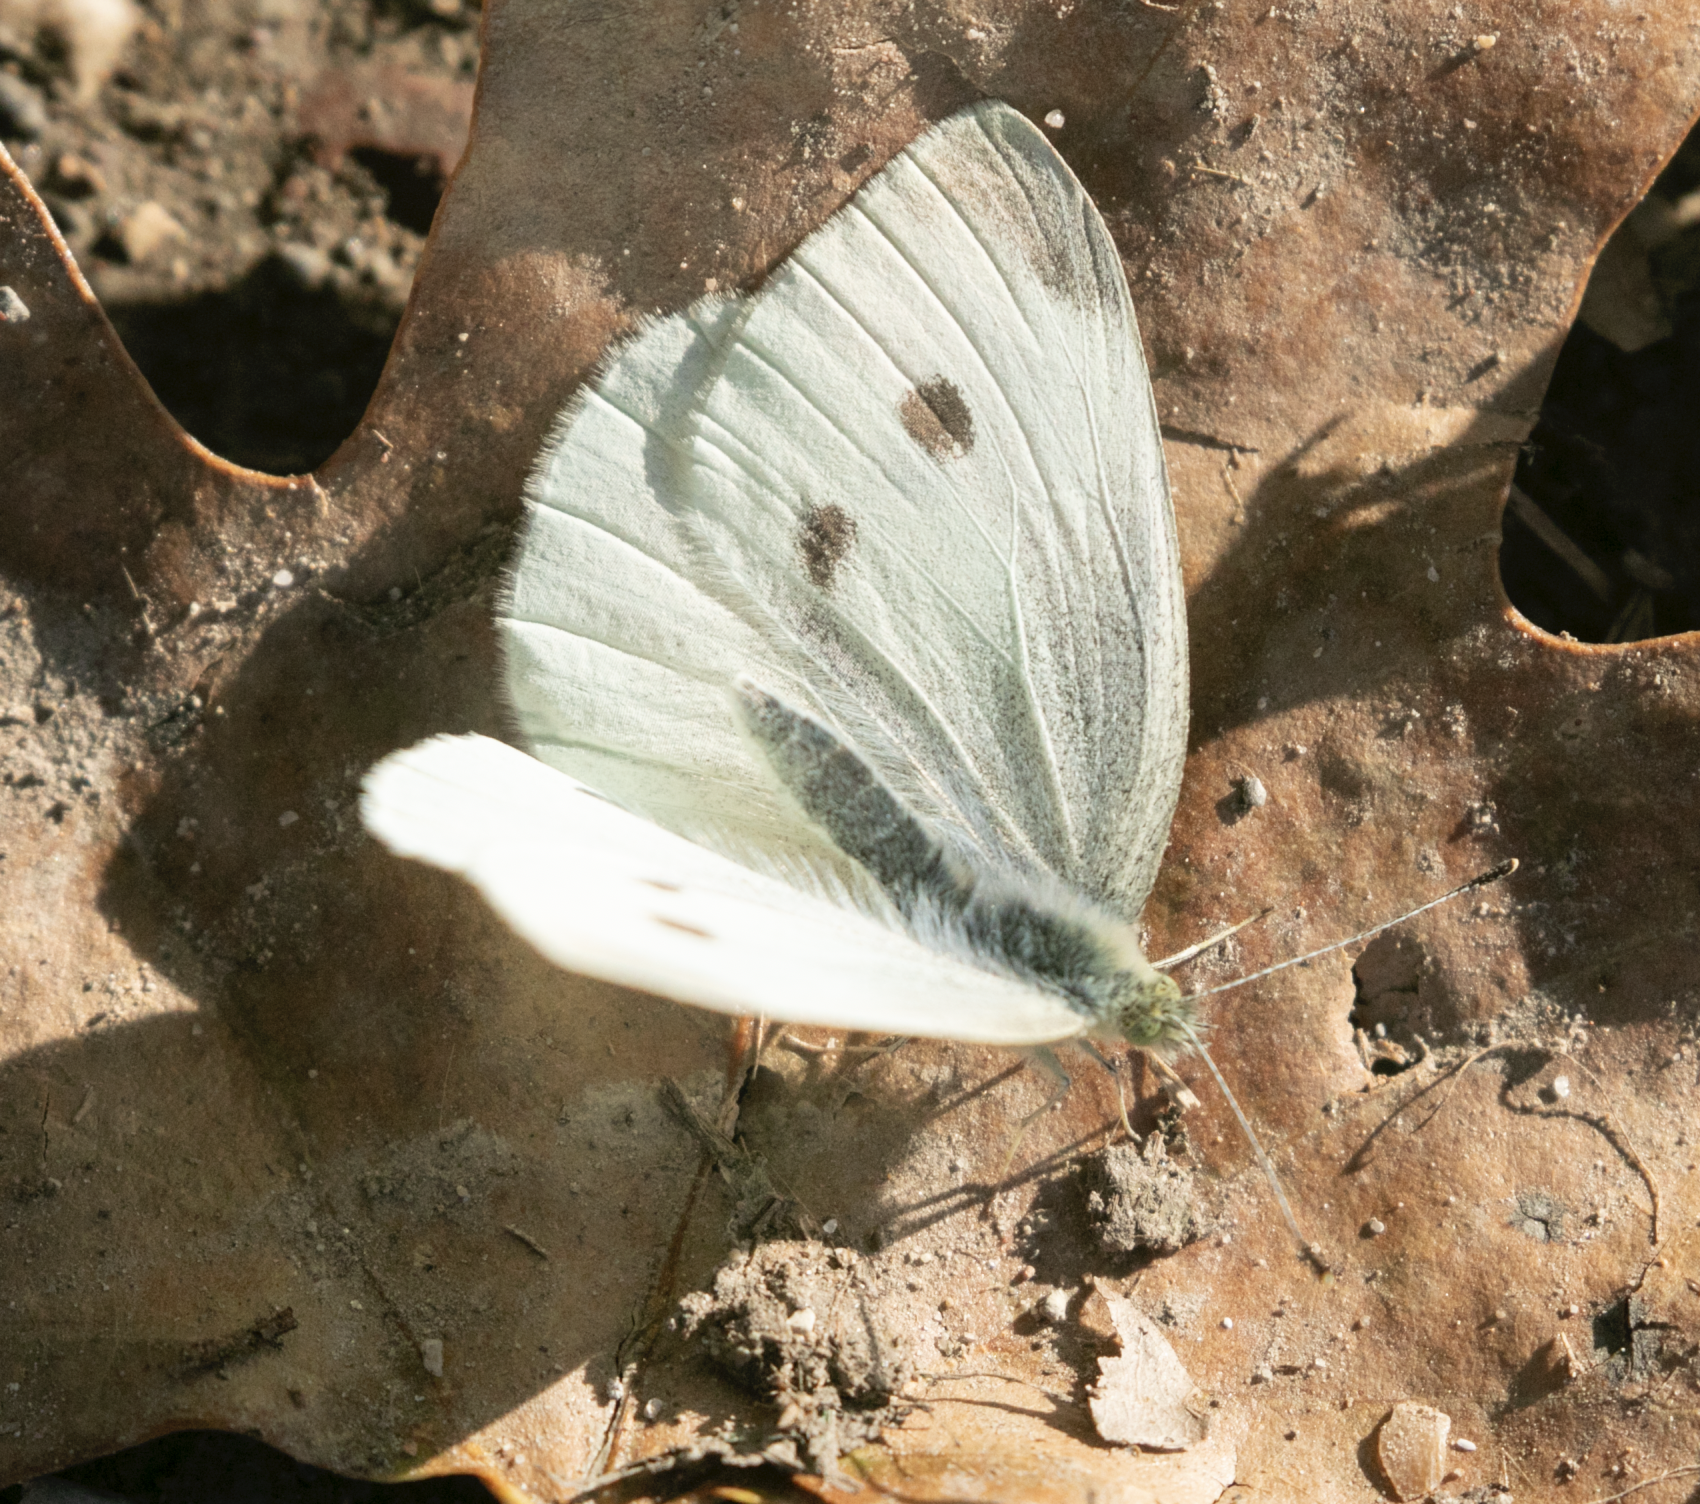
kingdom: Animalia
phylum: Arthropoda
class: Insecta
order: Lepidoptera
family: Pieridae
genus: Pieris
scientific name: Pieris rapae
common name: Small white
